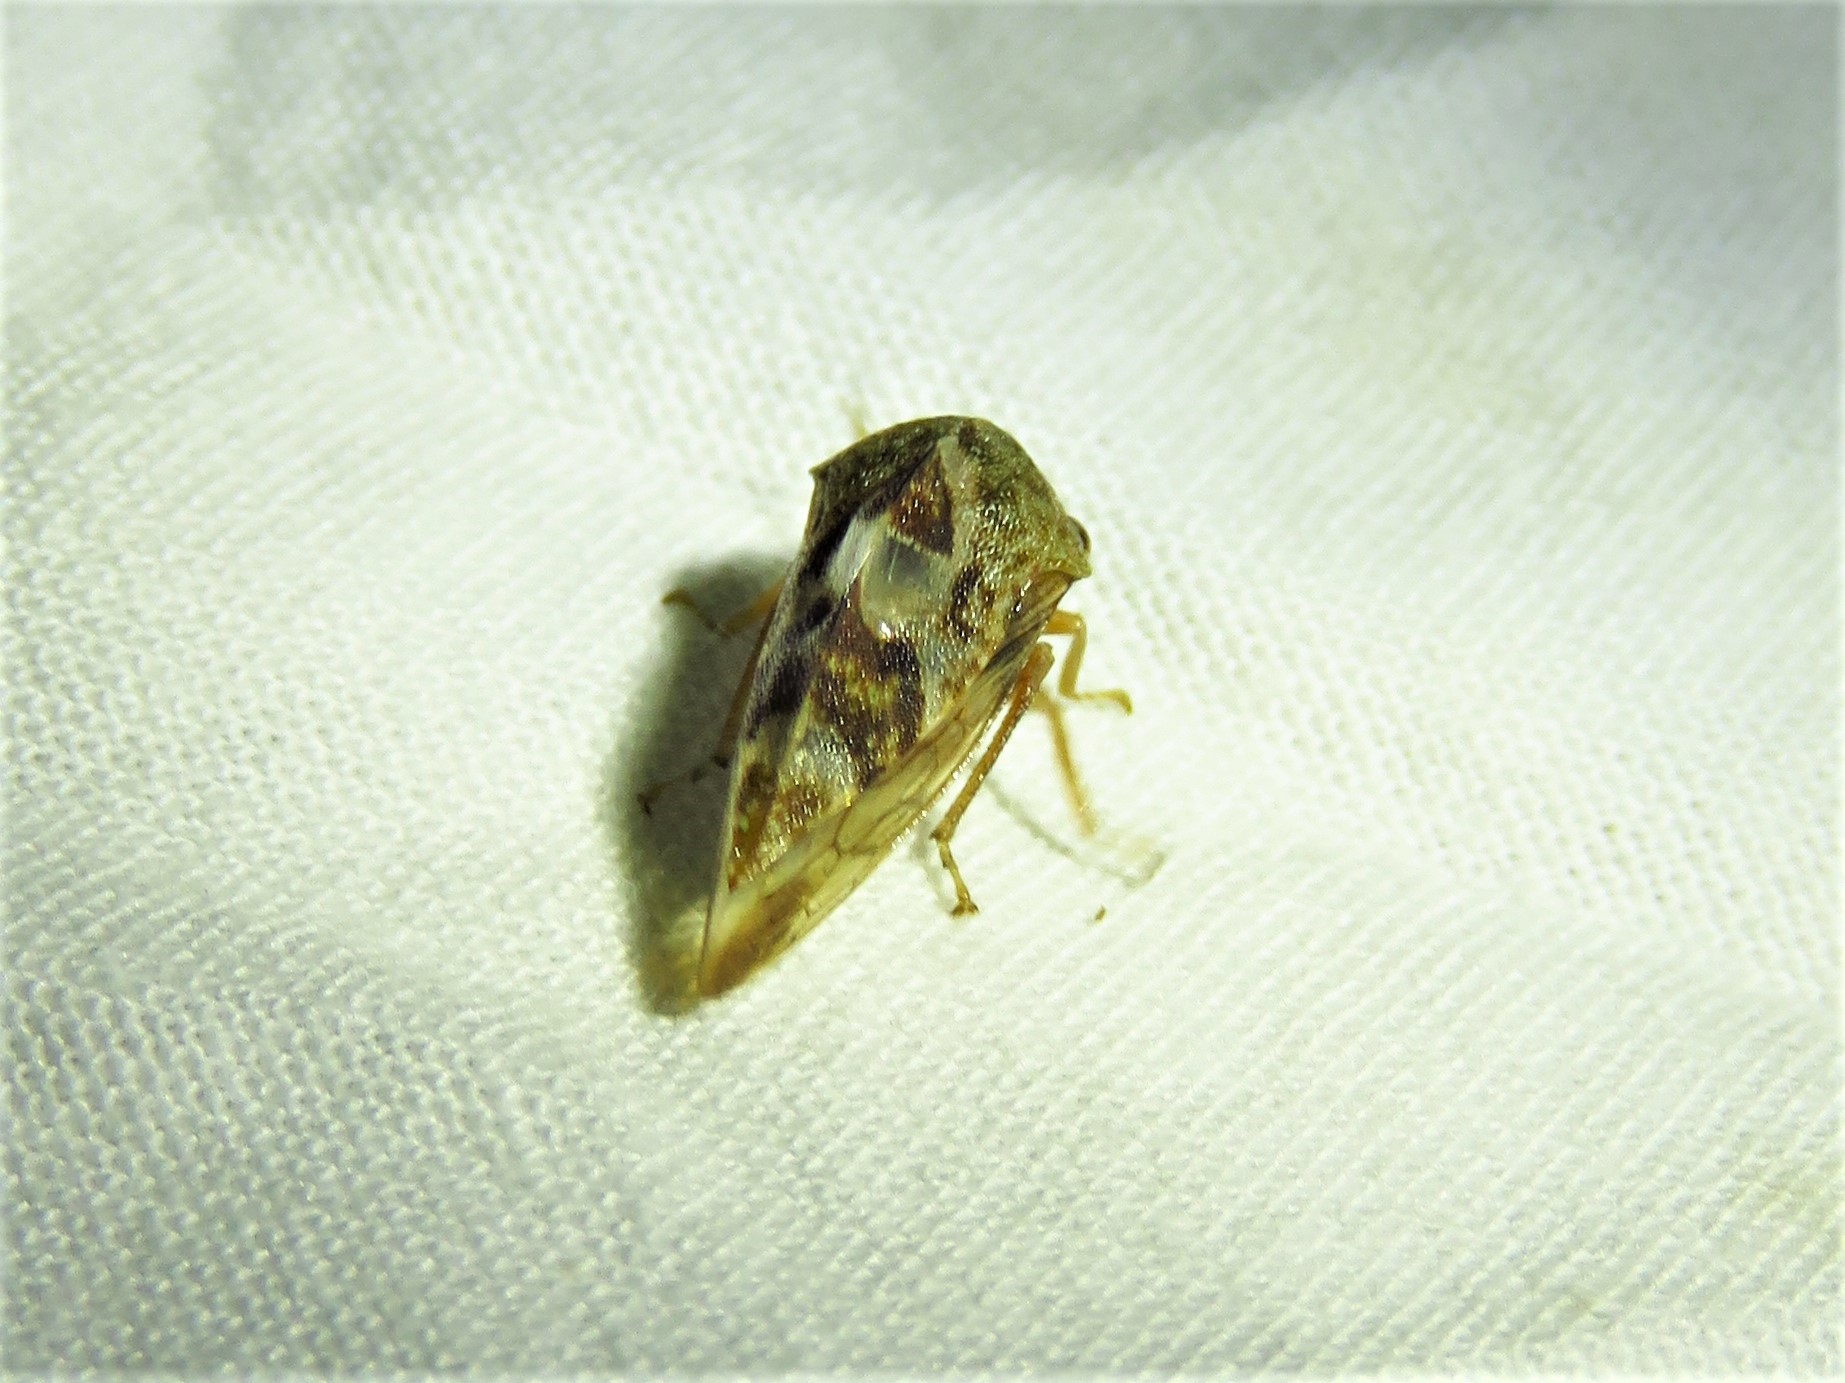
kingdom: Animalia
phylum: Arthropoda
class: Insecta
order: Hemiptera
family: Membracidae
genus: Cyrtolobus
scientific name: Cyrtolobus tuberosa
